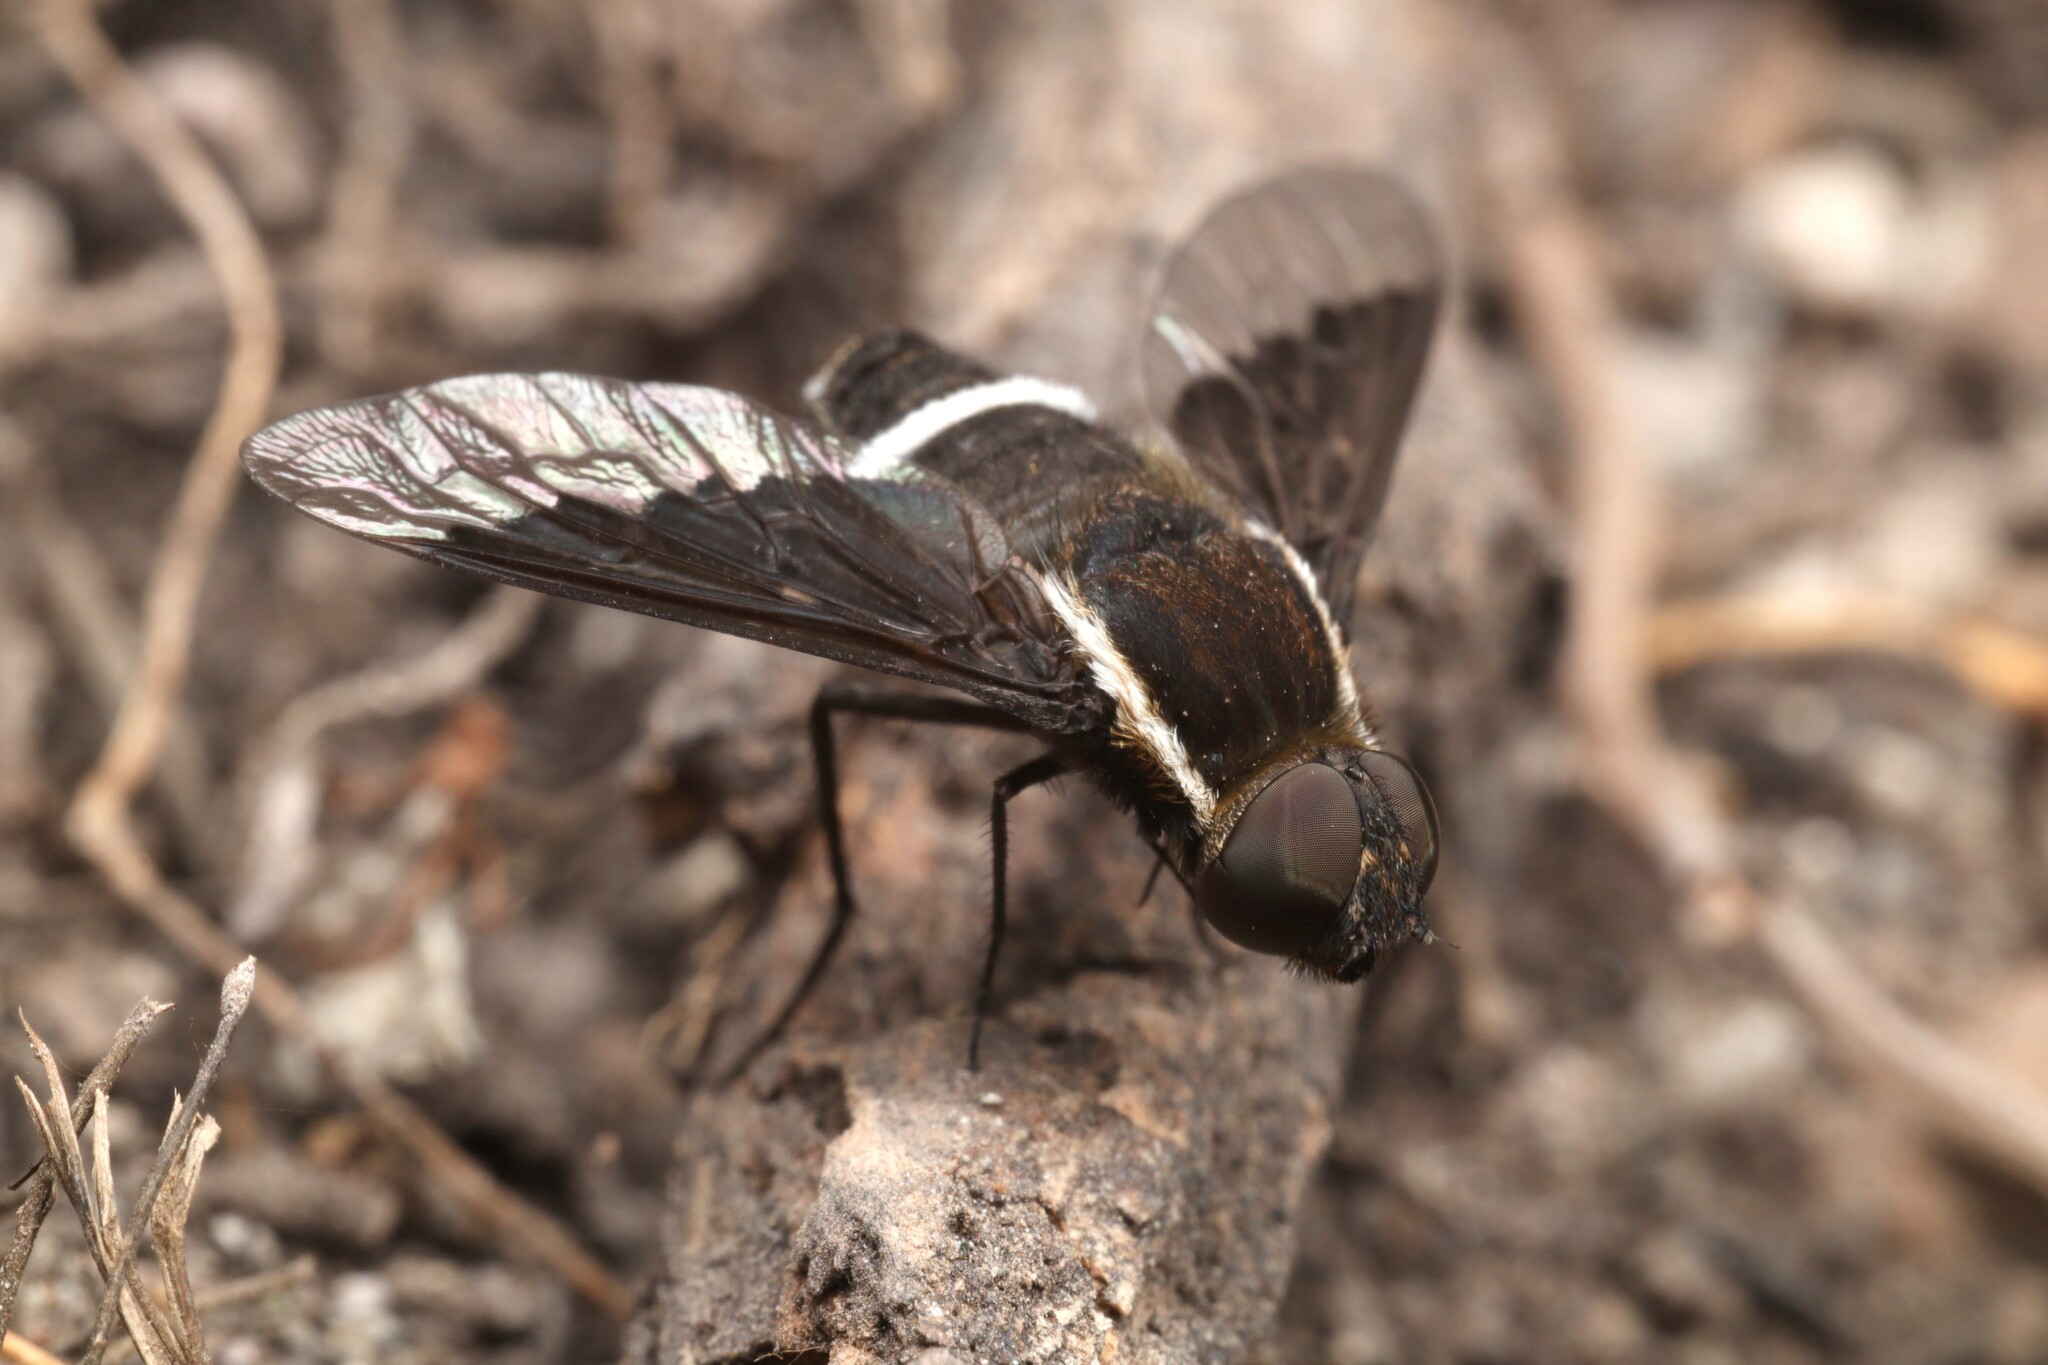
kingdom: Animalia
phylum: Arthropoda
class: Insecta
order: Diptera
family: Bombyliidae
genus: Hemipenthes
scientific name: Hemipenthes differens
